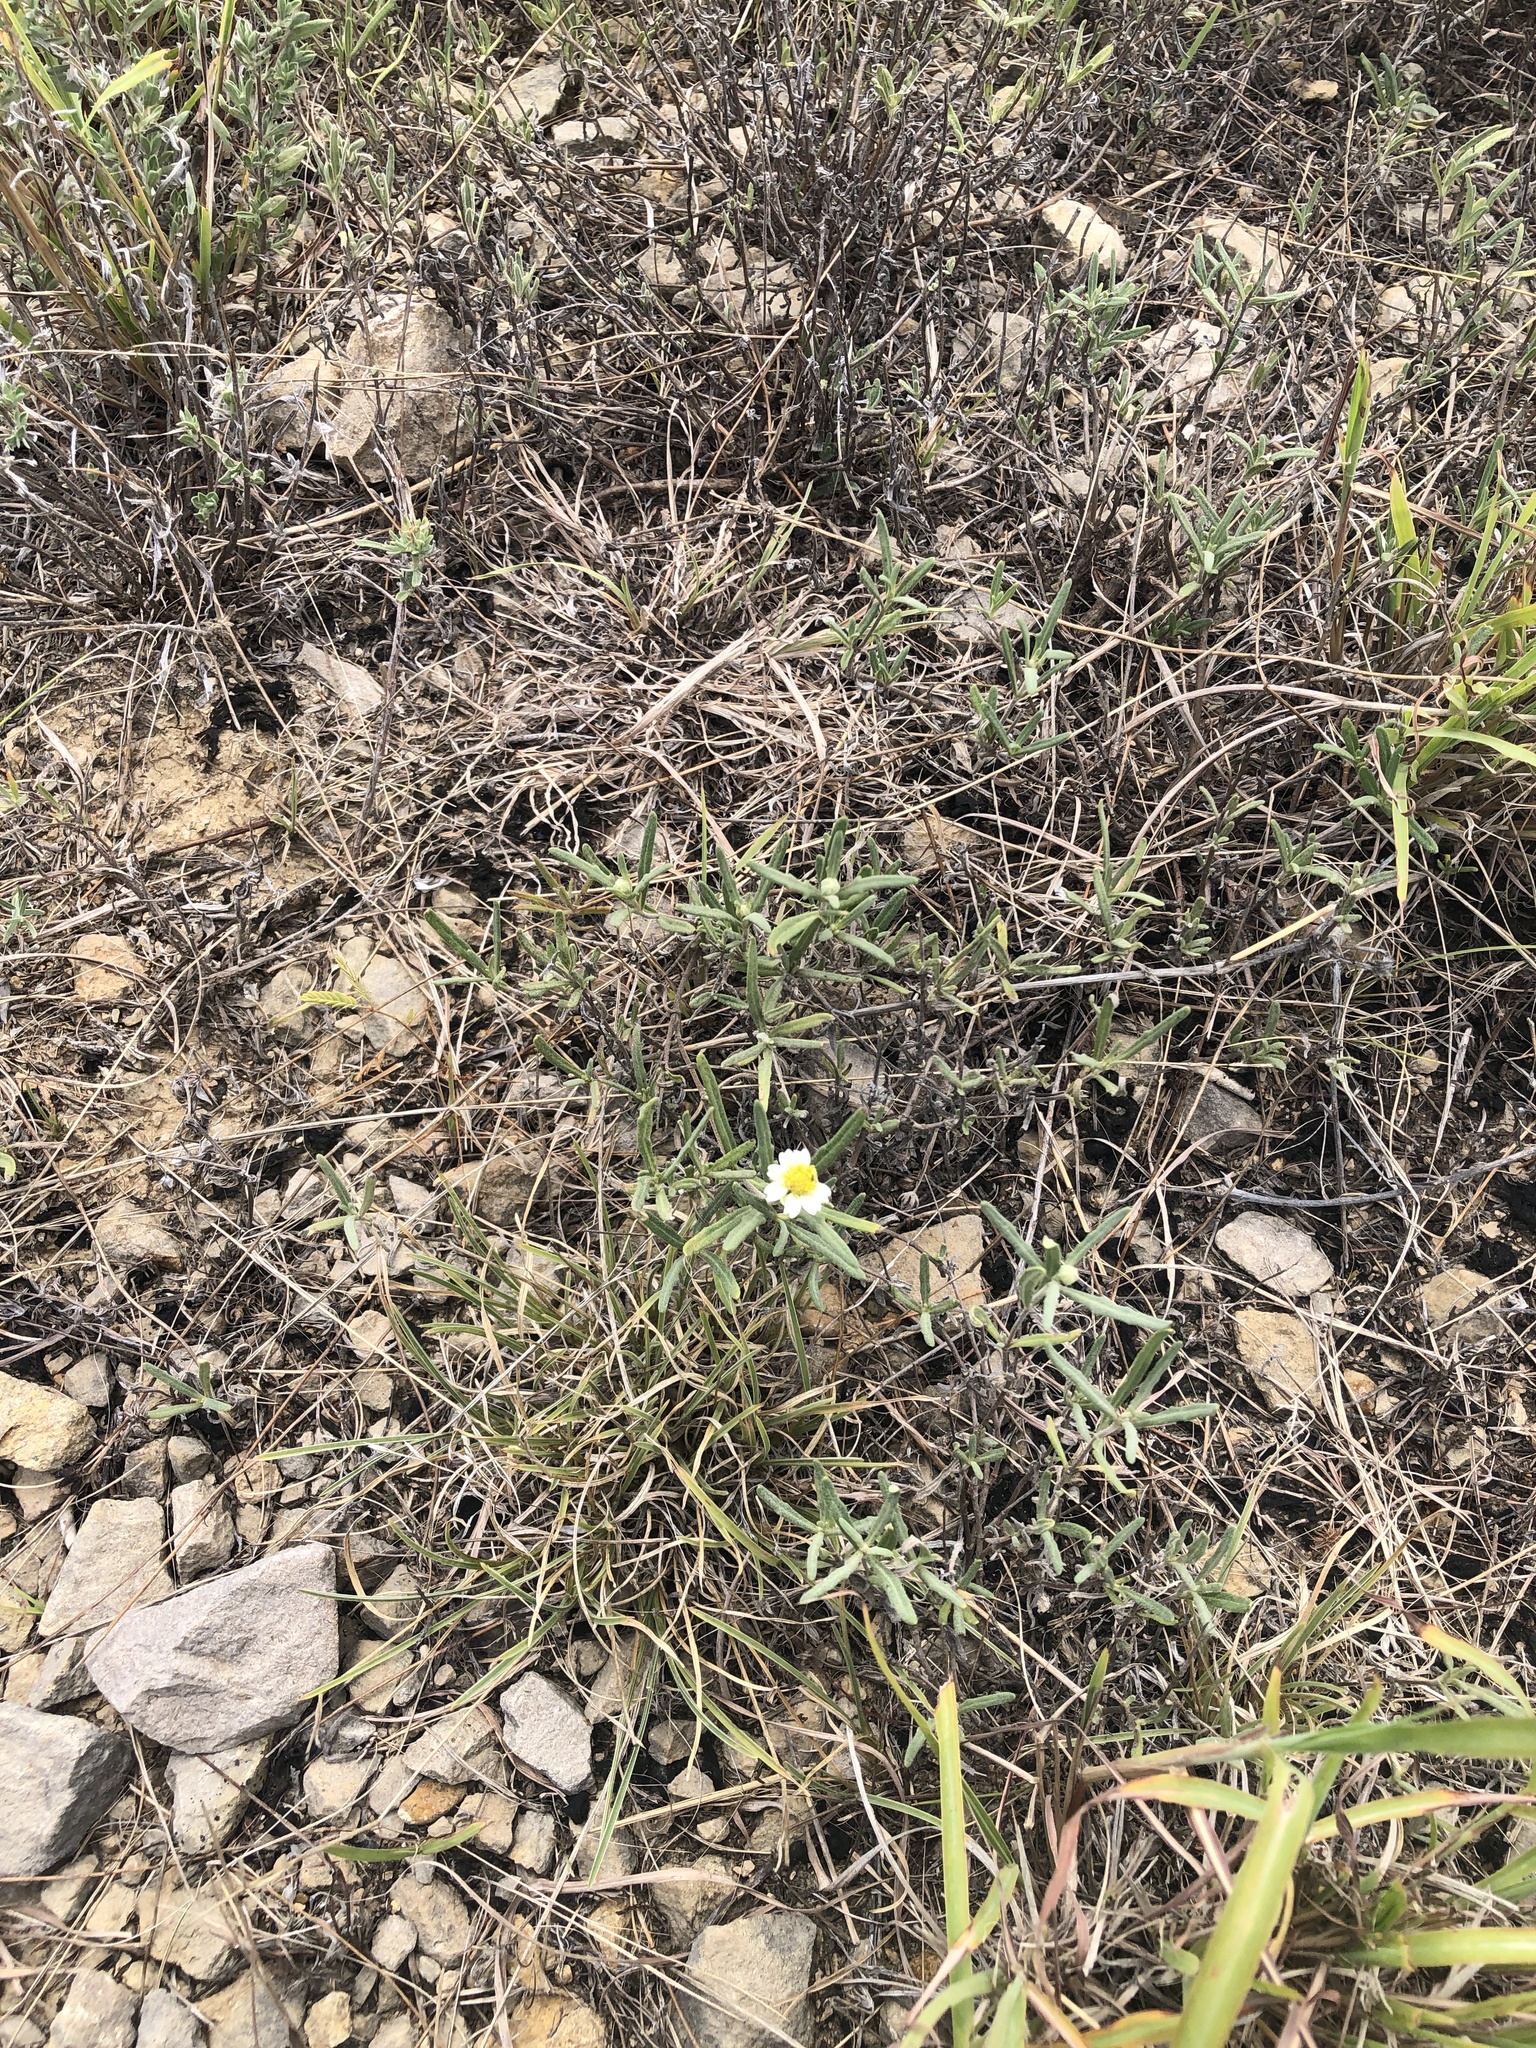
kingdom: Plantae
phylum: Tracheophyta
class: Magnoliopsida
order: Asterales
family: Asteraceae
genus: Melampodium
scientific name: Melampodium leucanthum
